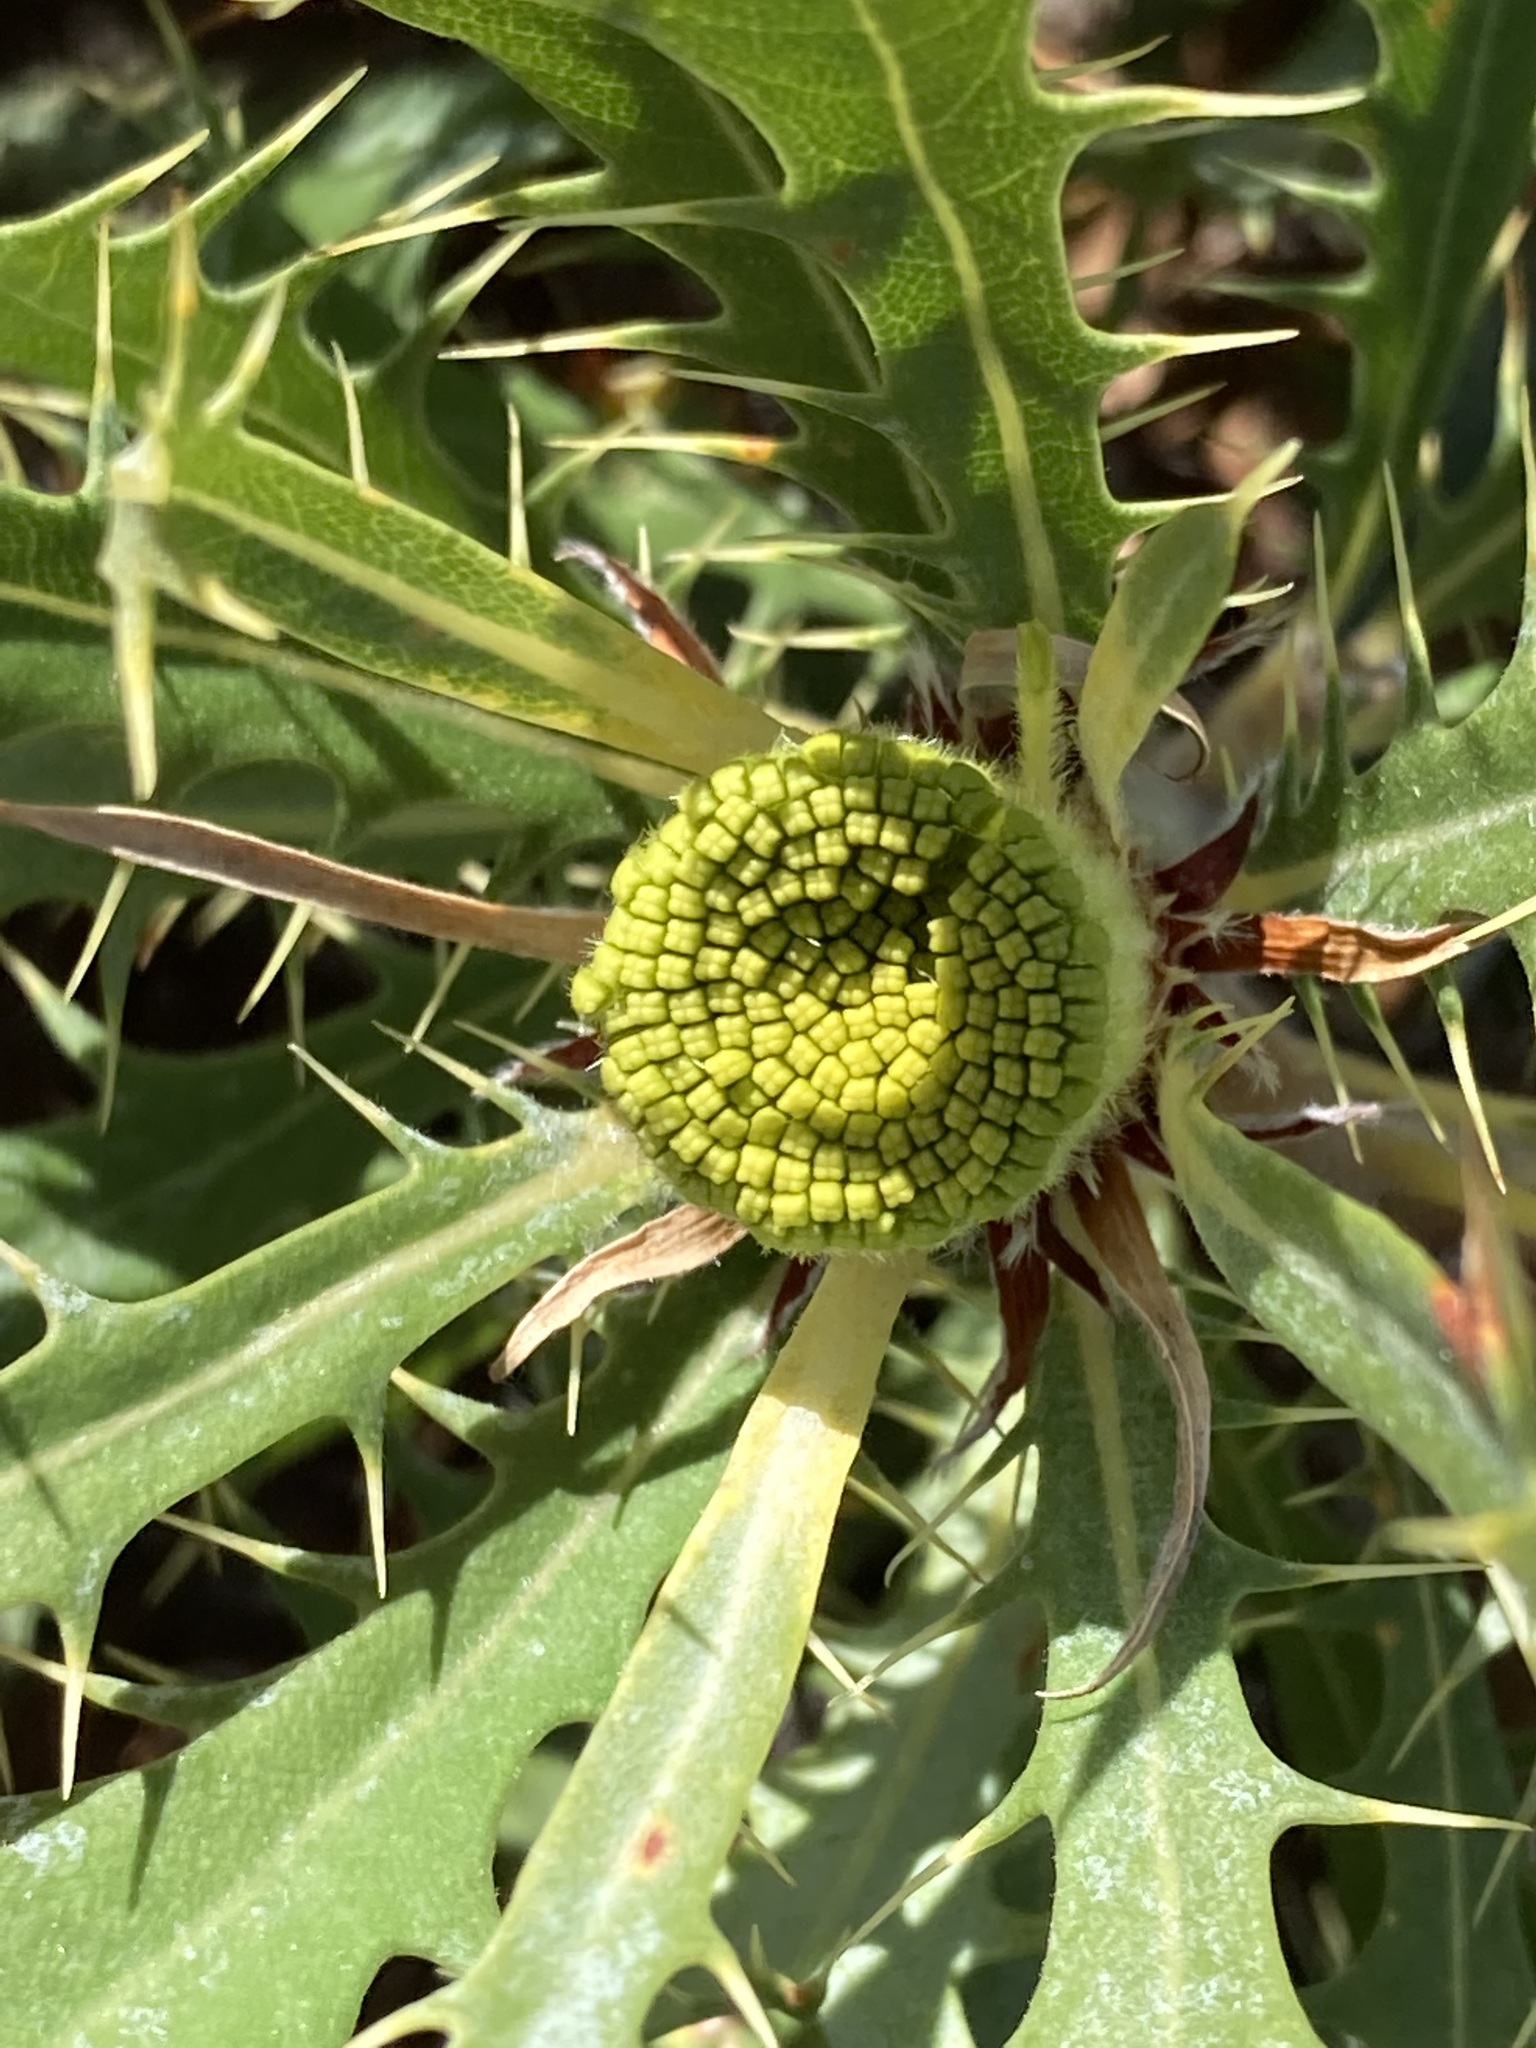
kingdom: Plantae
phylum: Tracheophyta
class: Magnoliopsida
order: Proteales
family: Proteaceae
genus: Banksia
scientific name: Banksia glaucifolia
